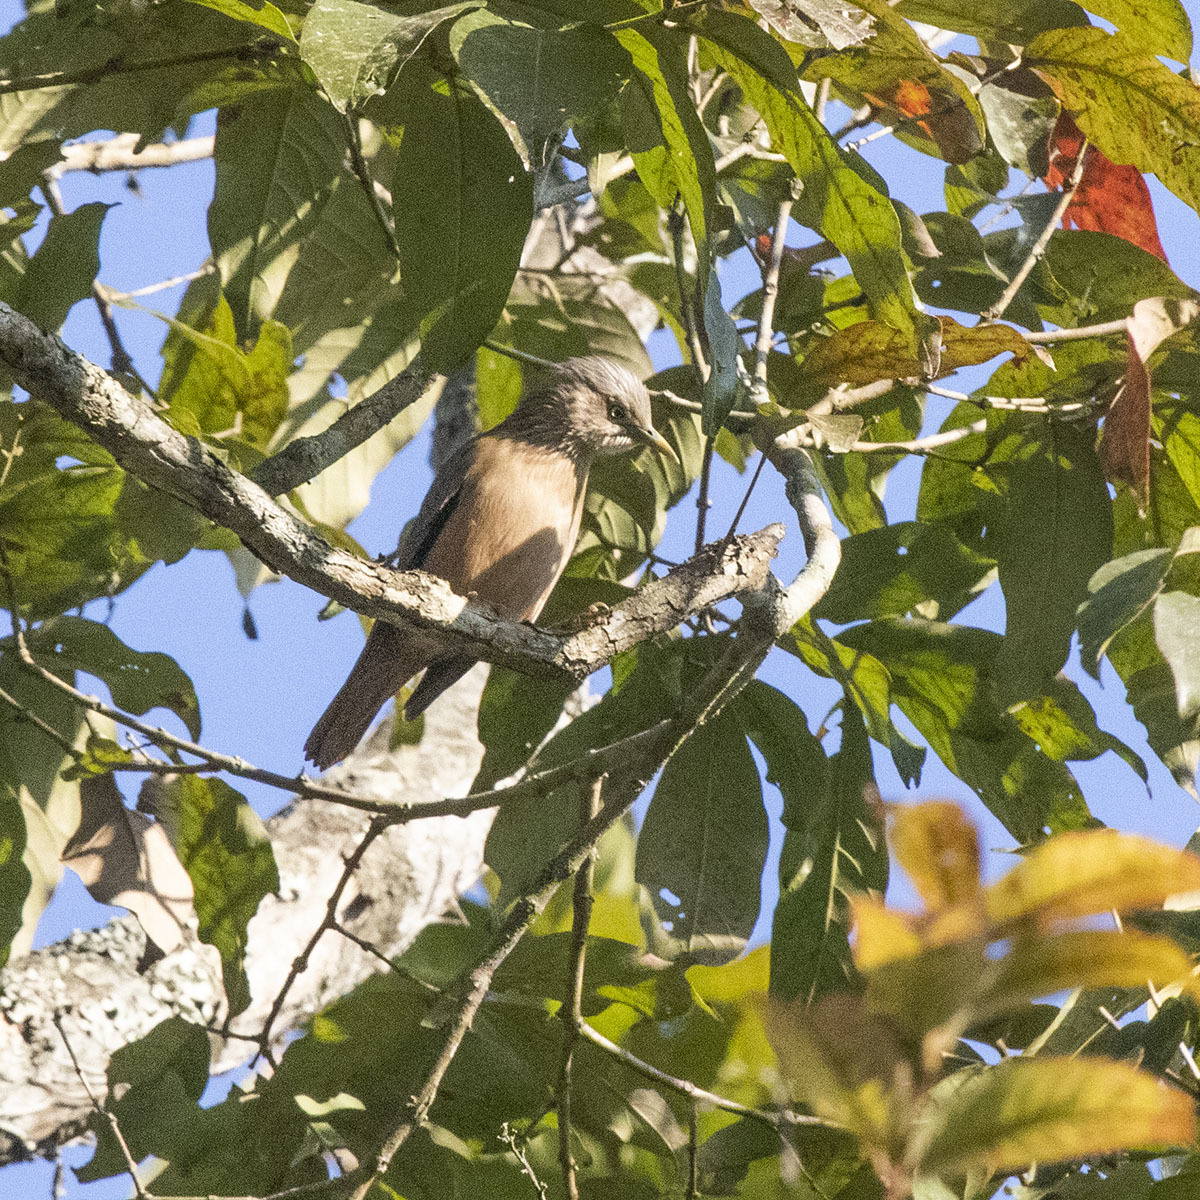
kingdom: Animalia
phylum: Chordata
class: Aves
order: Passeriformes
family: Sturnidae
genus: Sturnia
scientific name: Sturnia malabarica
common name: Chestnut-tailed starling
